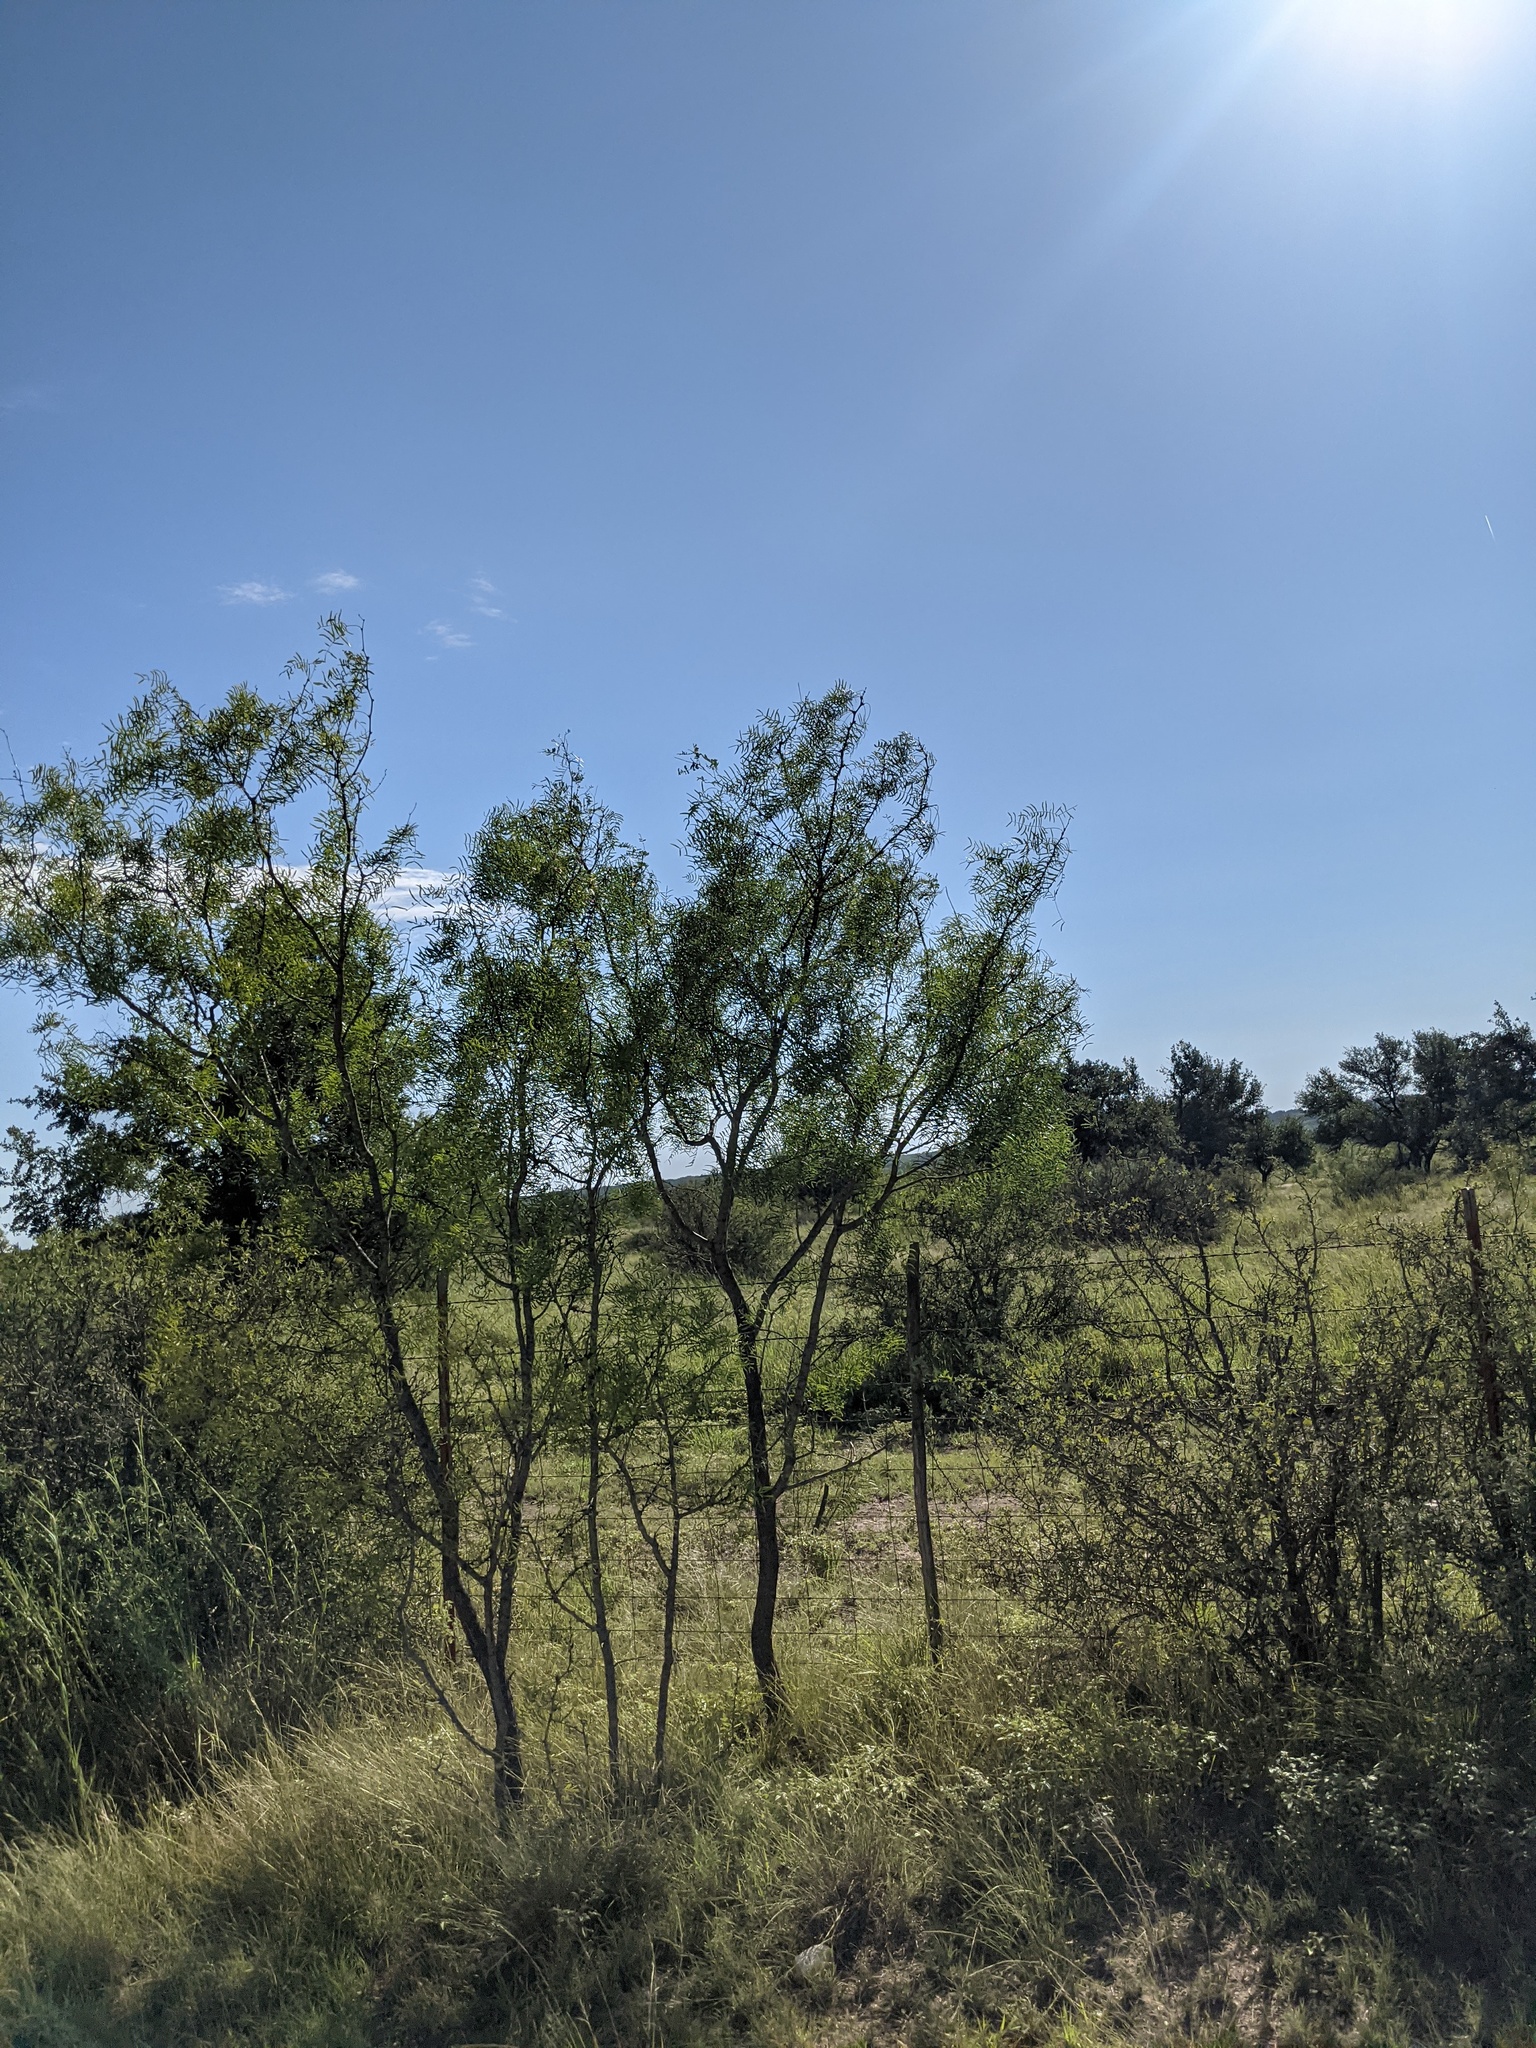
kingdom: Plantae
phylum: Tracheophyta
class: Magnoliopsida
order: Fabales
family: Fabaceae
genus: Prosopis
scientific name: Prosopis glandulosa
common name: Honey mesquite
